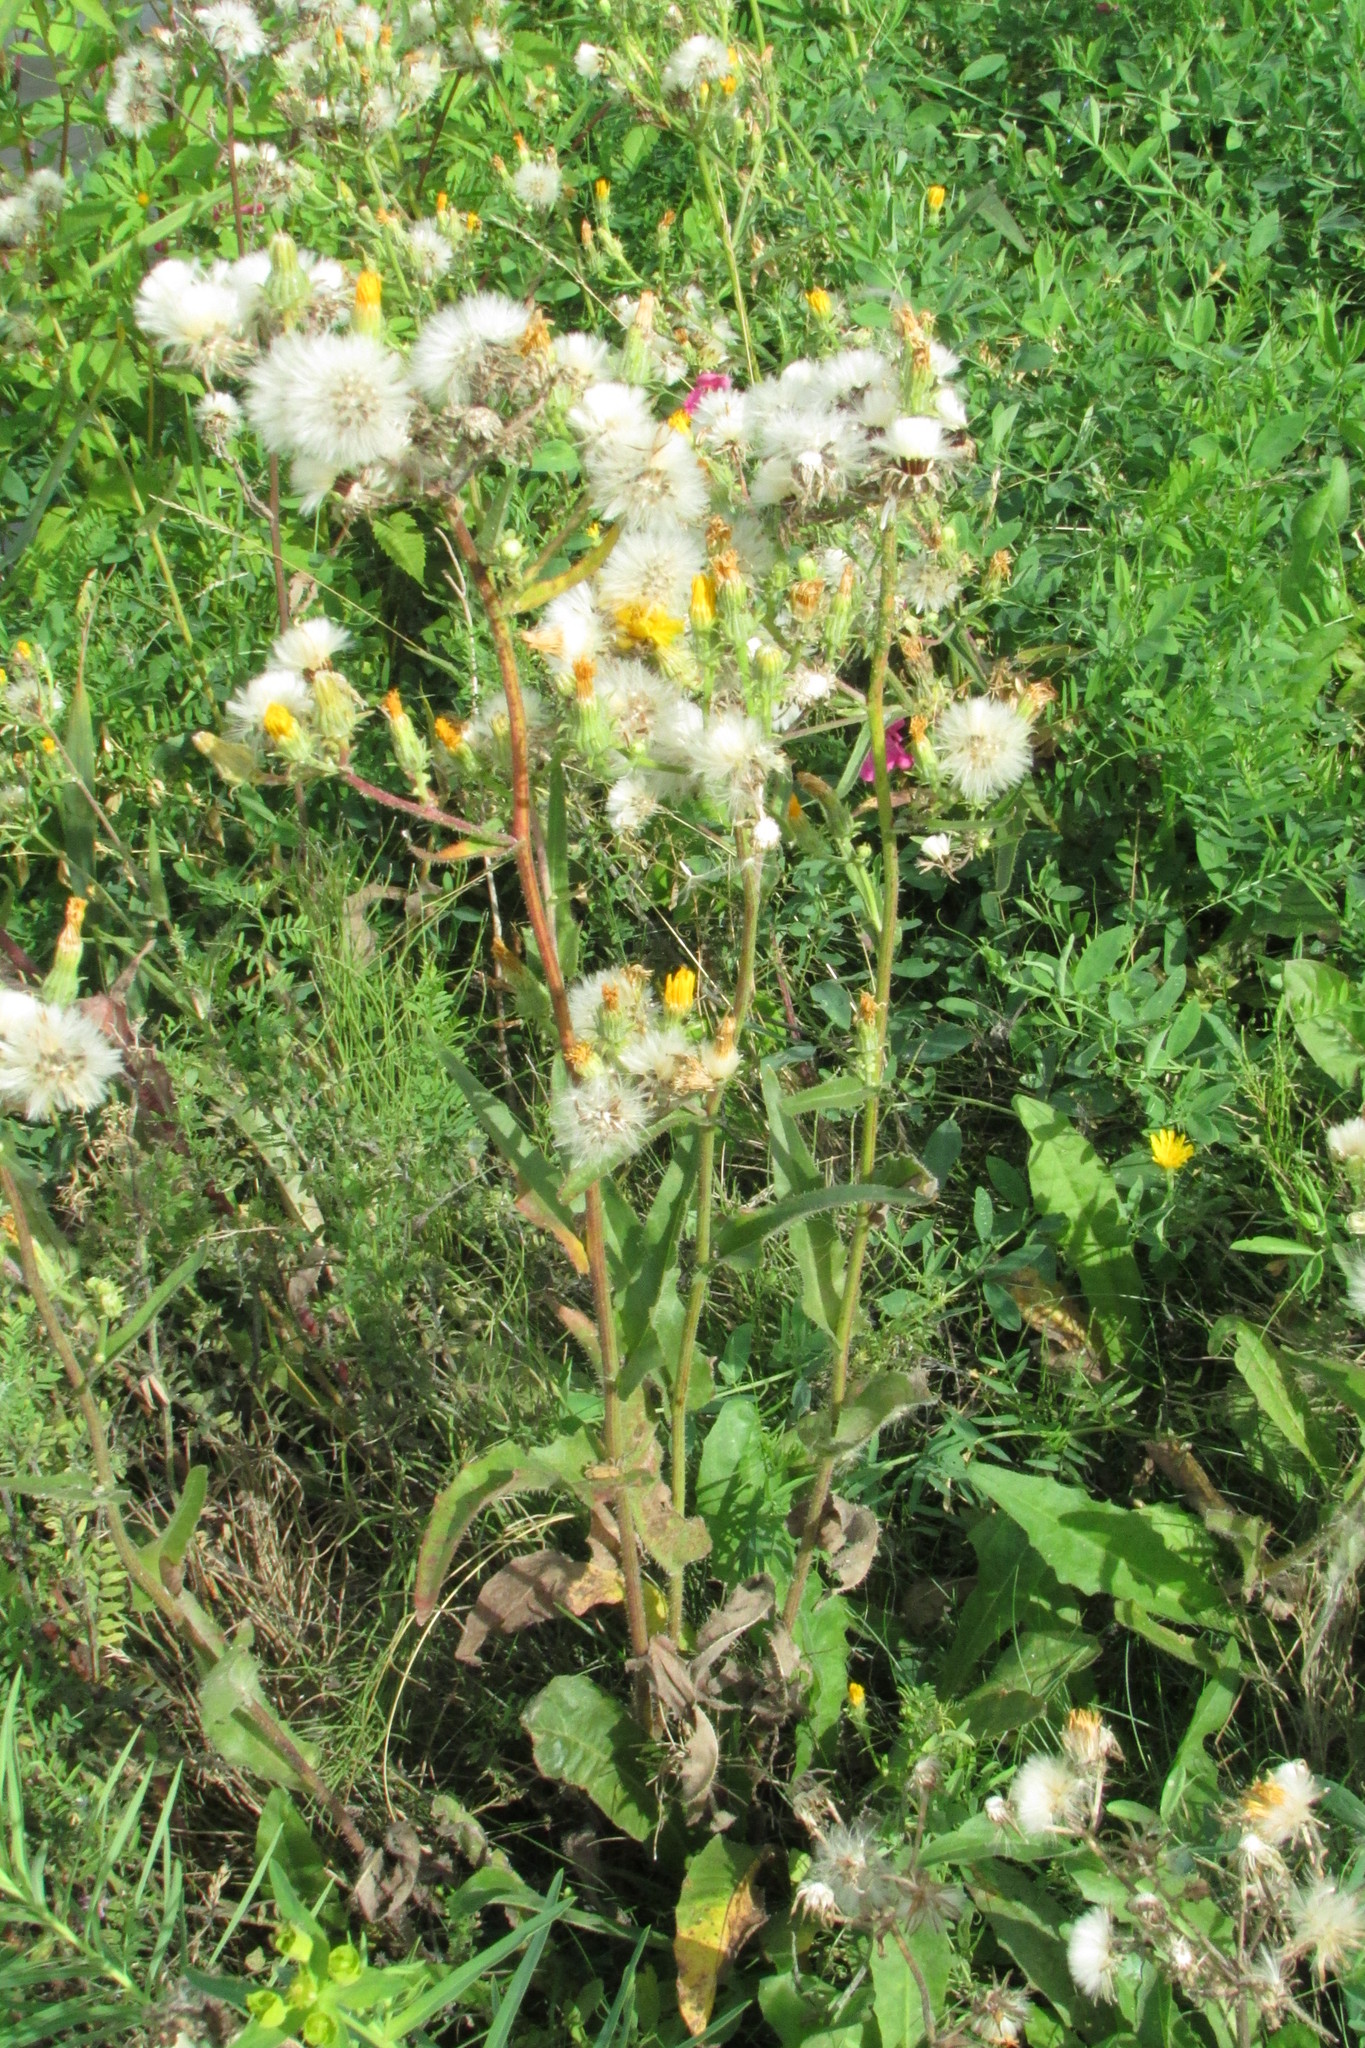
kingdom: Plantae
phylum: Tracheophyta
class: Magnoliopsida
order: Asterales
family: Asteraceae
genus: Picris
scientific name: Picris hieracioides
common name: Hawkweed oxtongue
